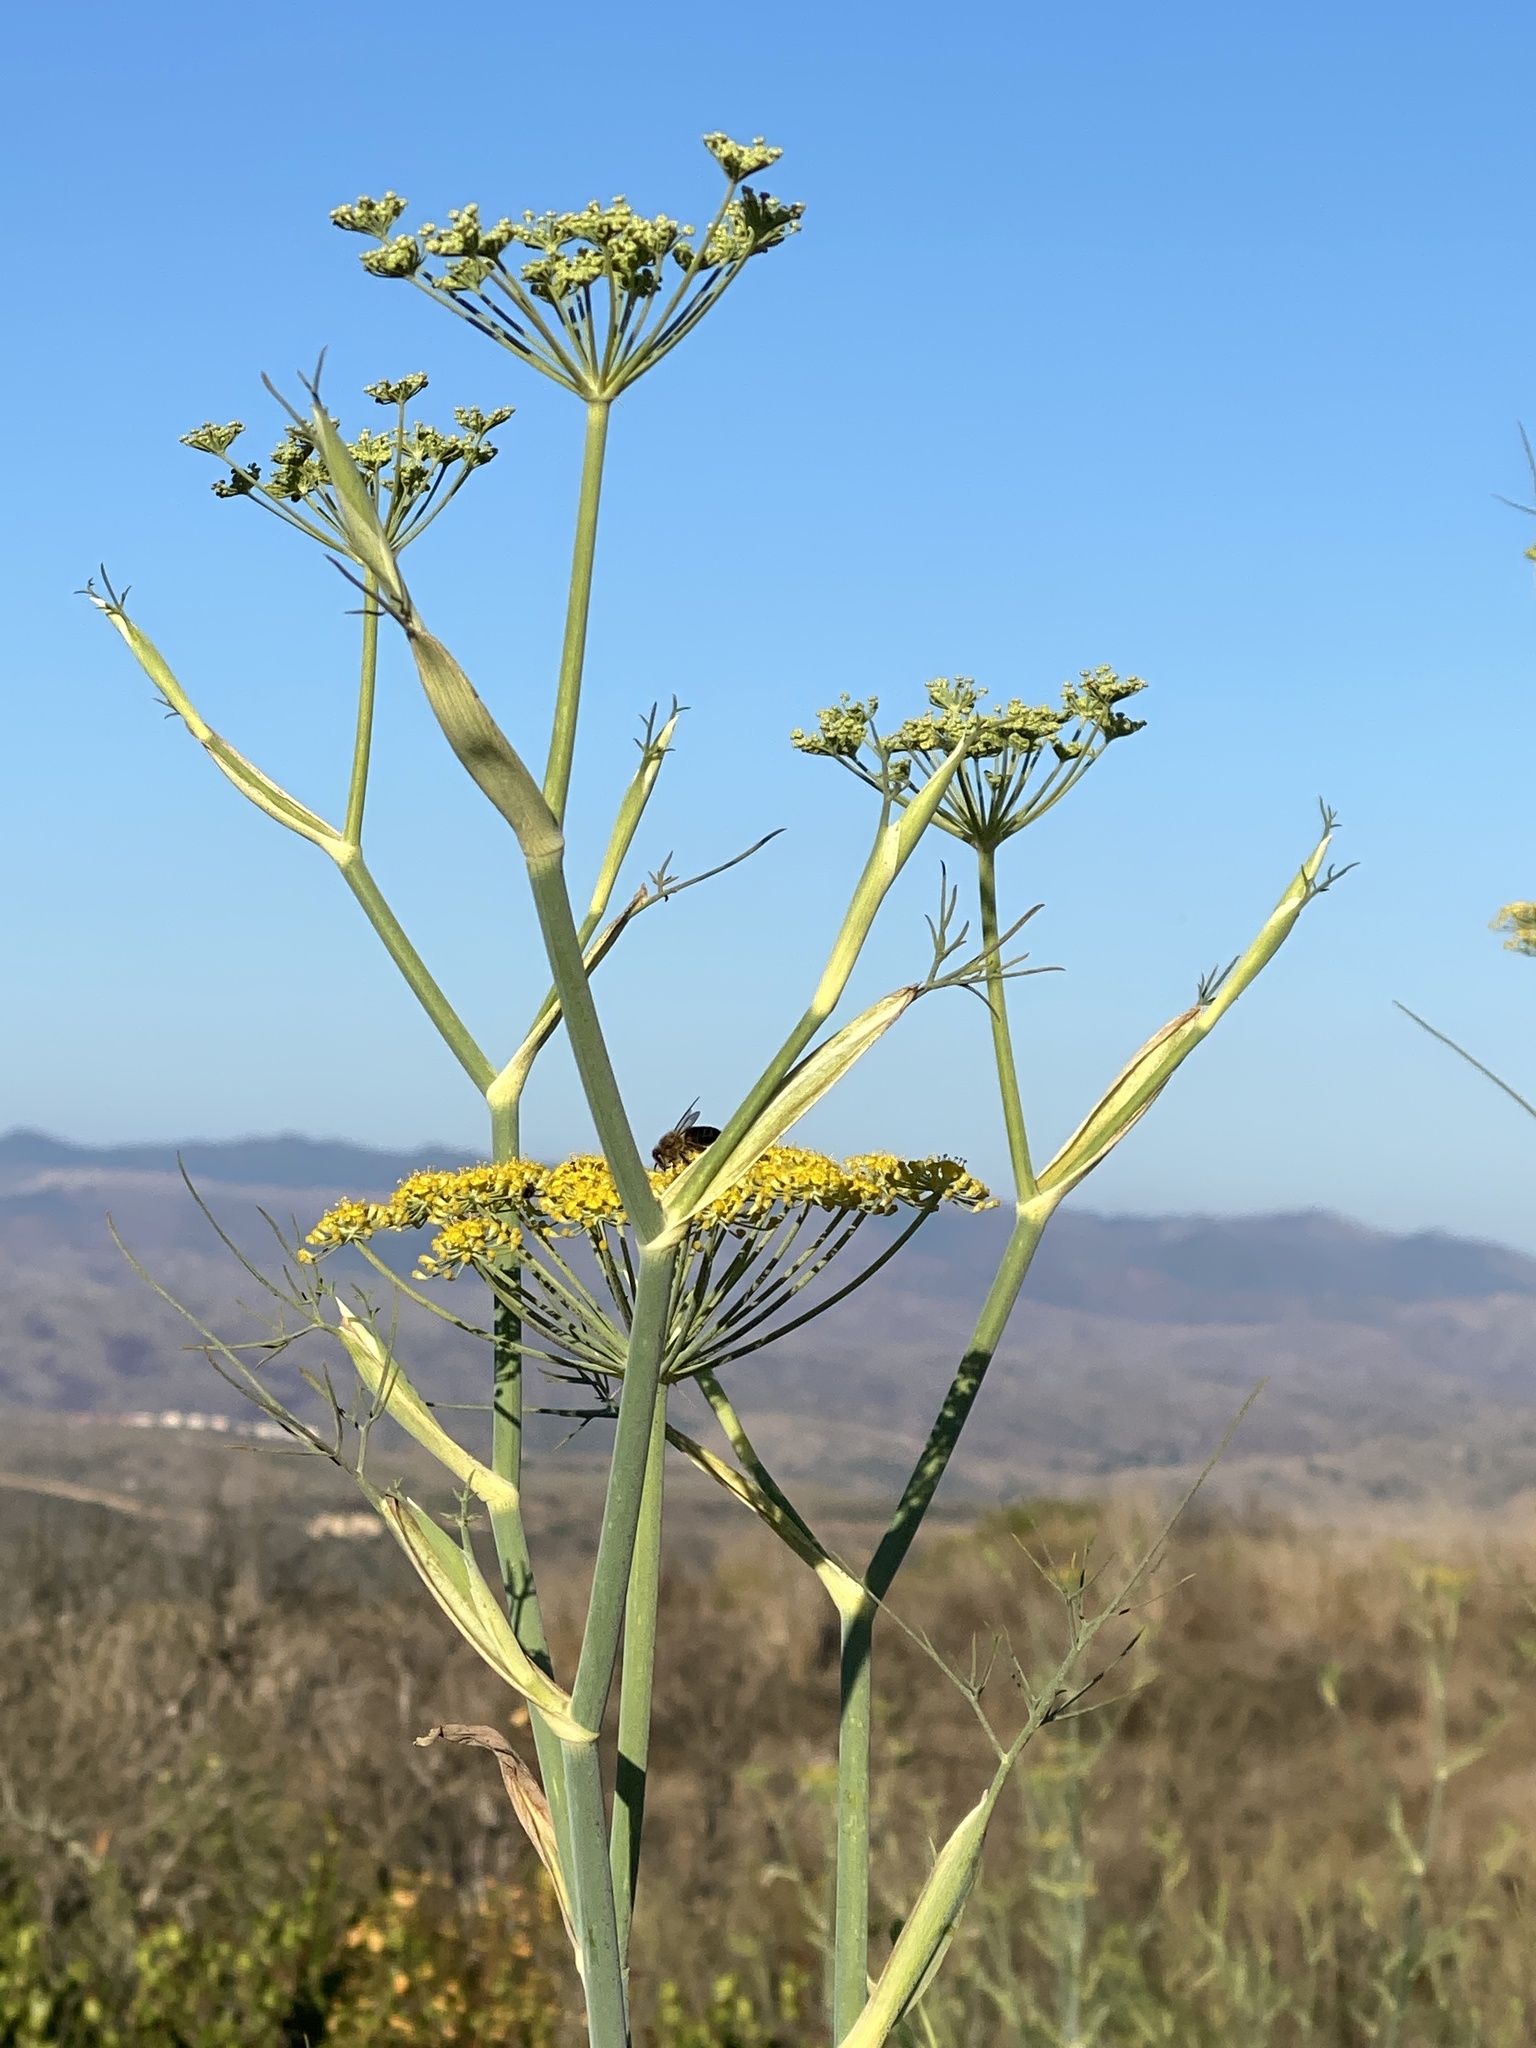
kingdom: Plantae
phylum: Tracheophyta
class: Magnoliopsida
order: Apiales
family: Apiaceae
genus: Foeniculum
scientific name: Foeniculum vulgare
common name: Fennel
